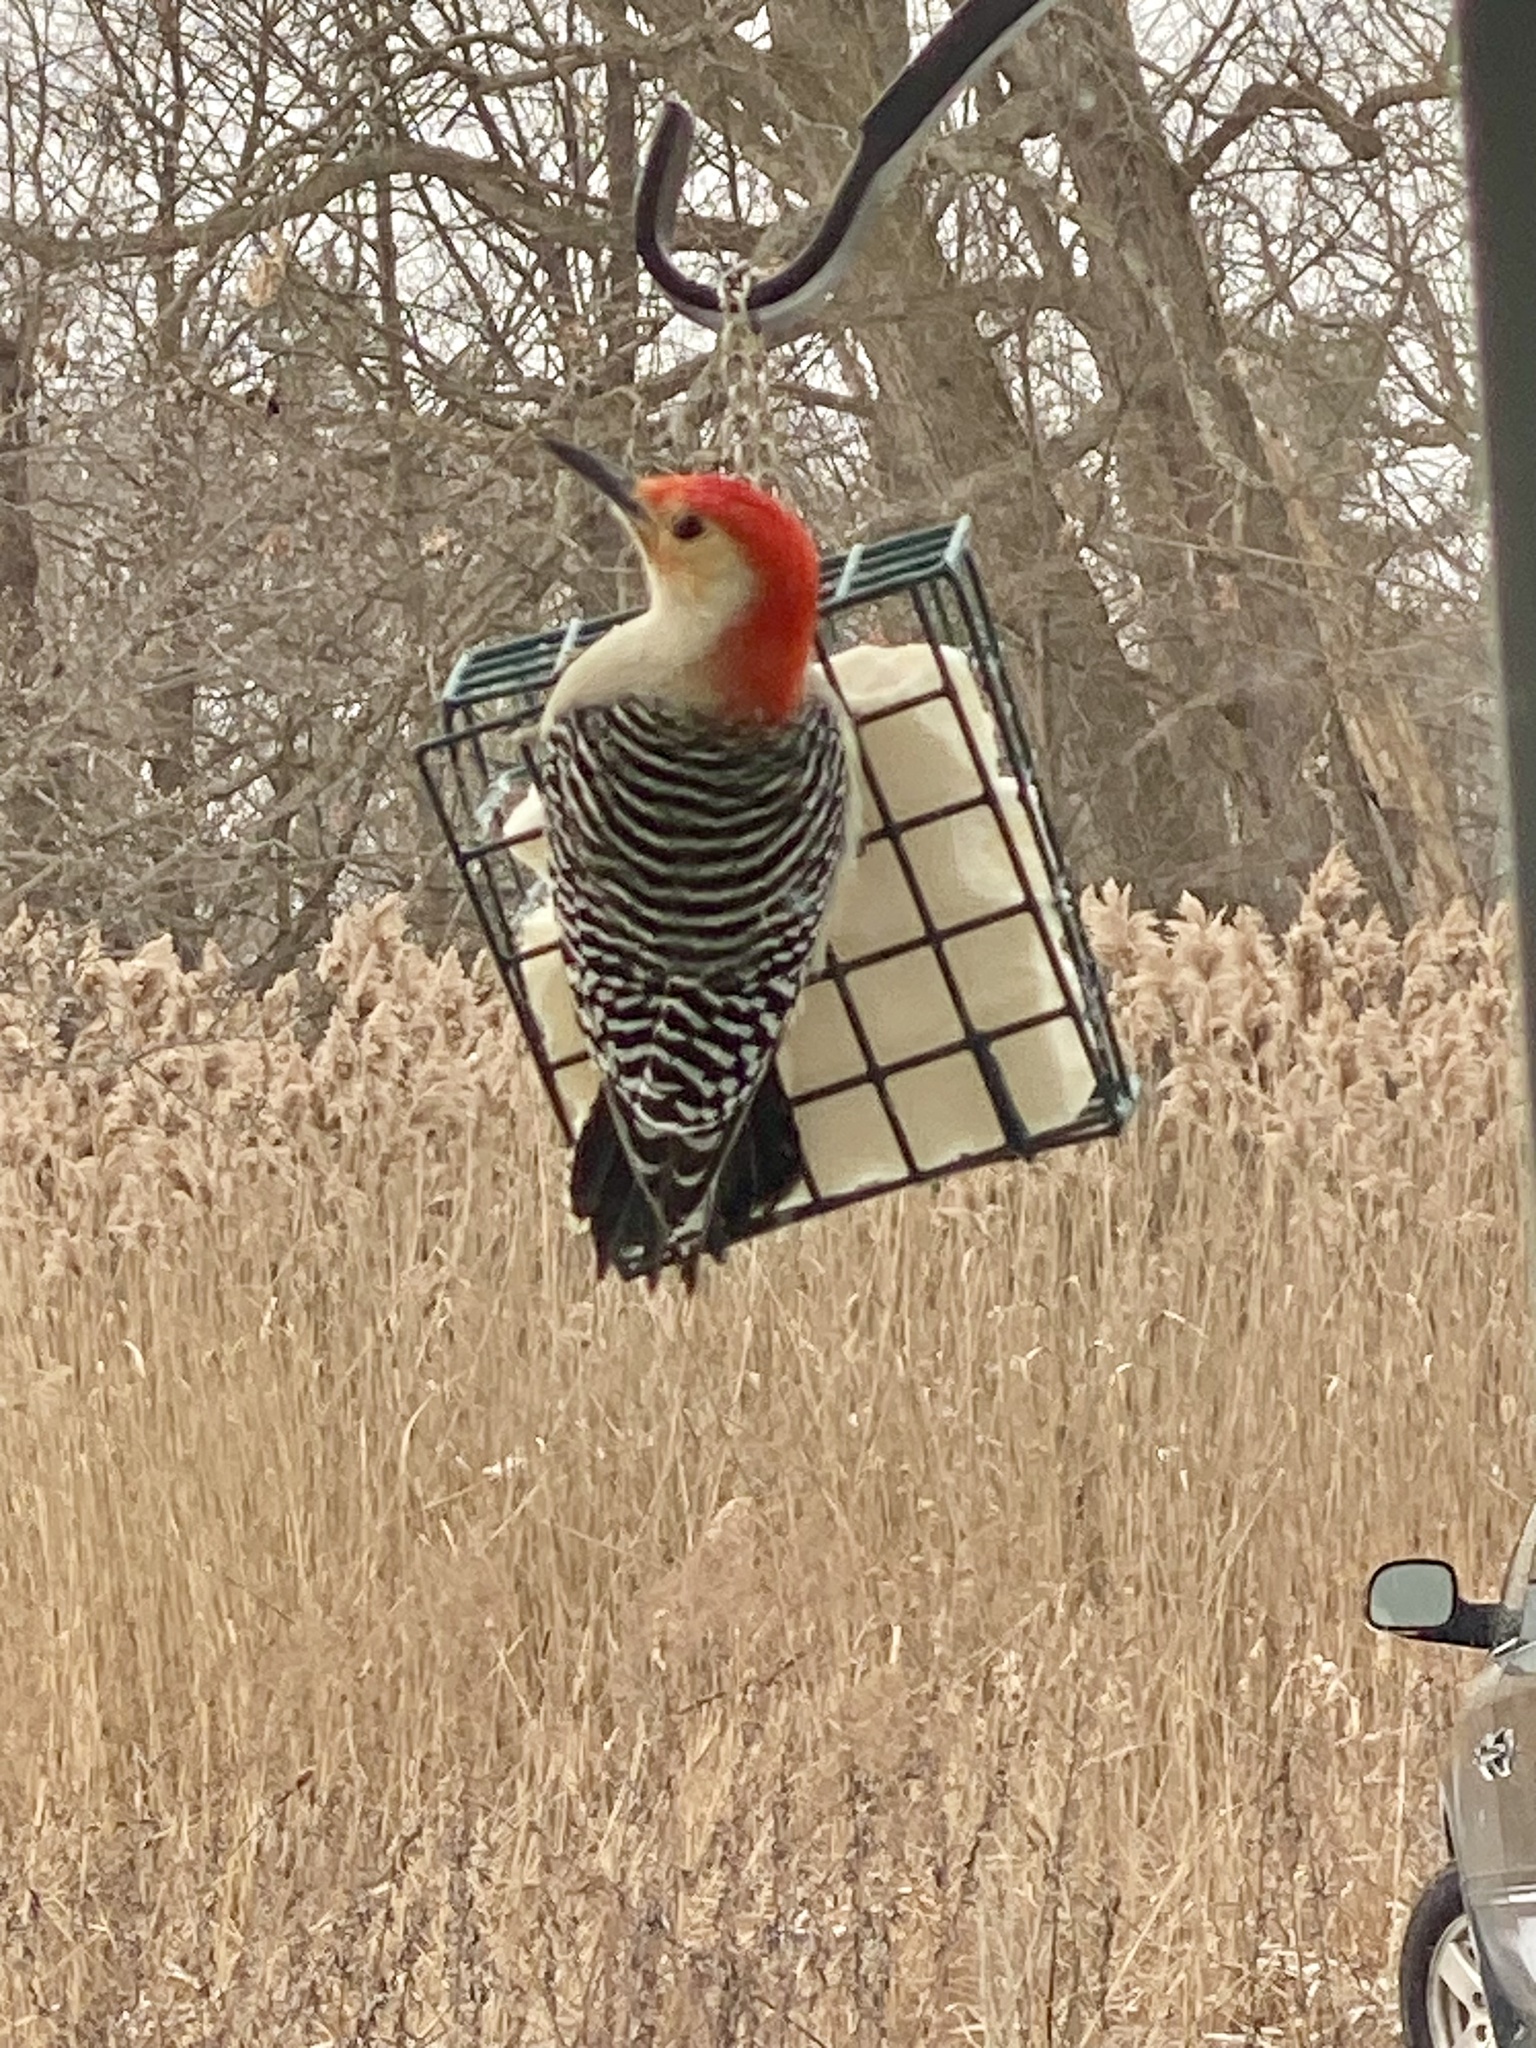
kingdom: Animalia
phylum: Chordata
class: Aves
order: Piciformes
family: Picidae
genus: Melanerpes
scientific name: Melanerpes carolinus
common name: Red-bellied woodpecker
